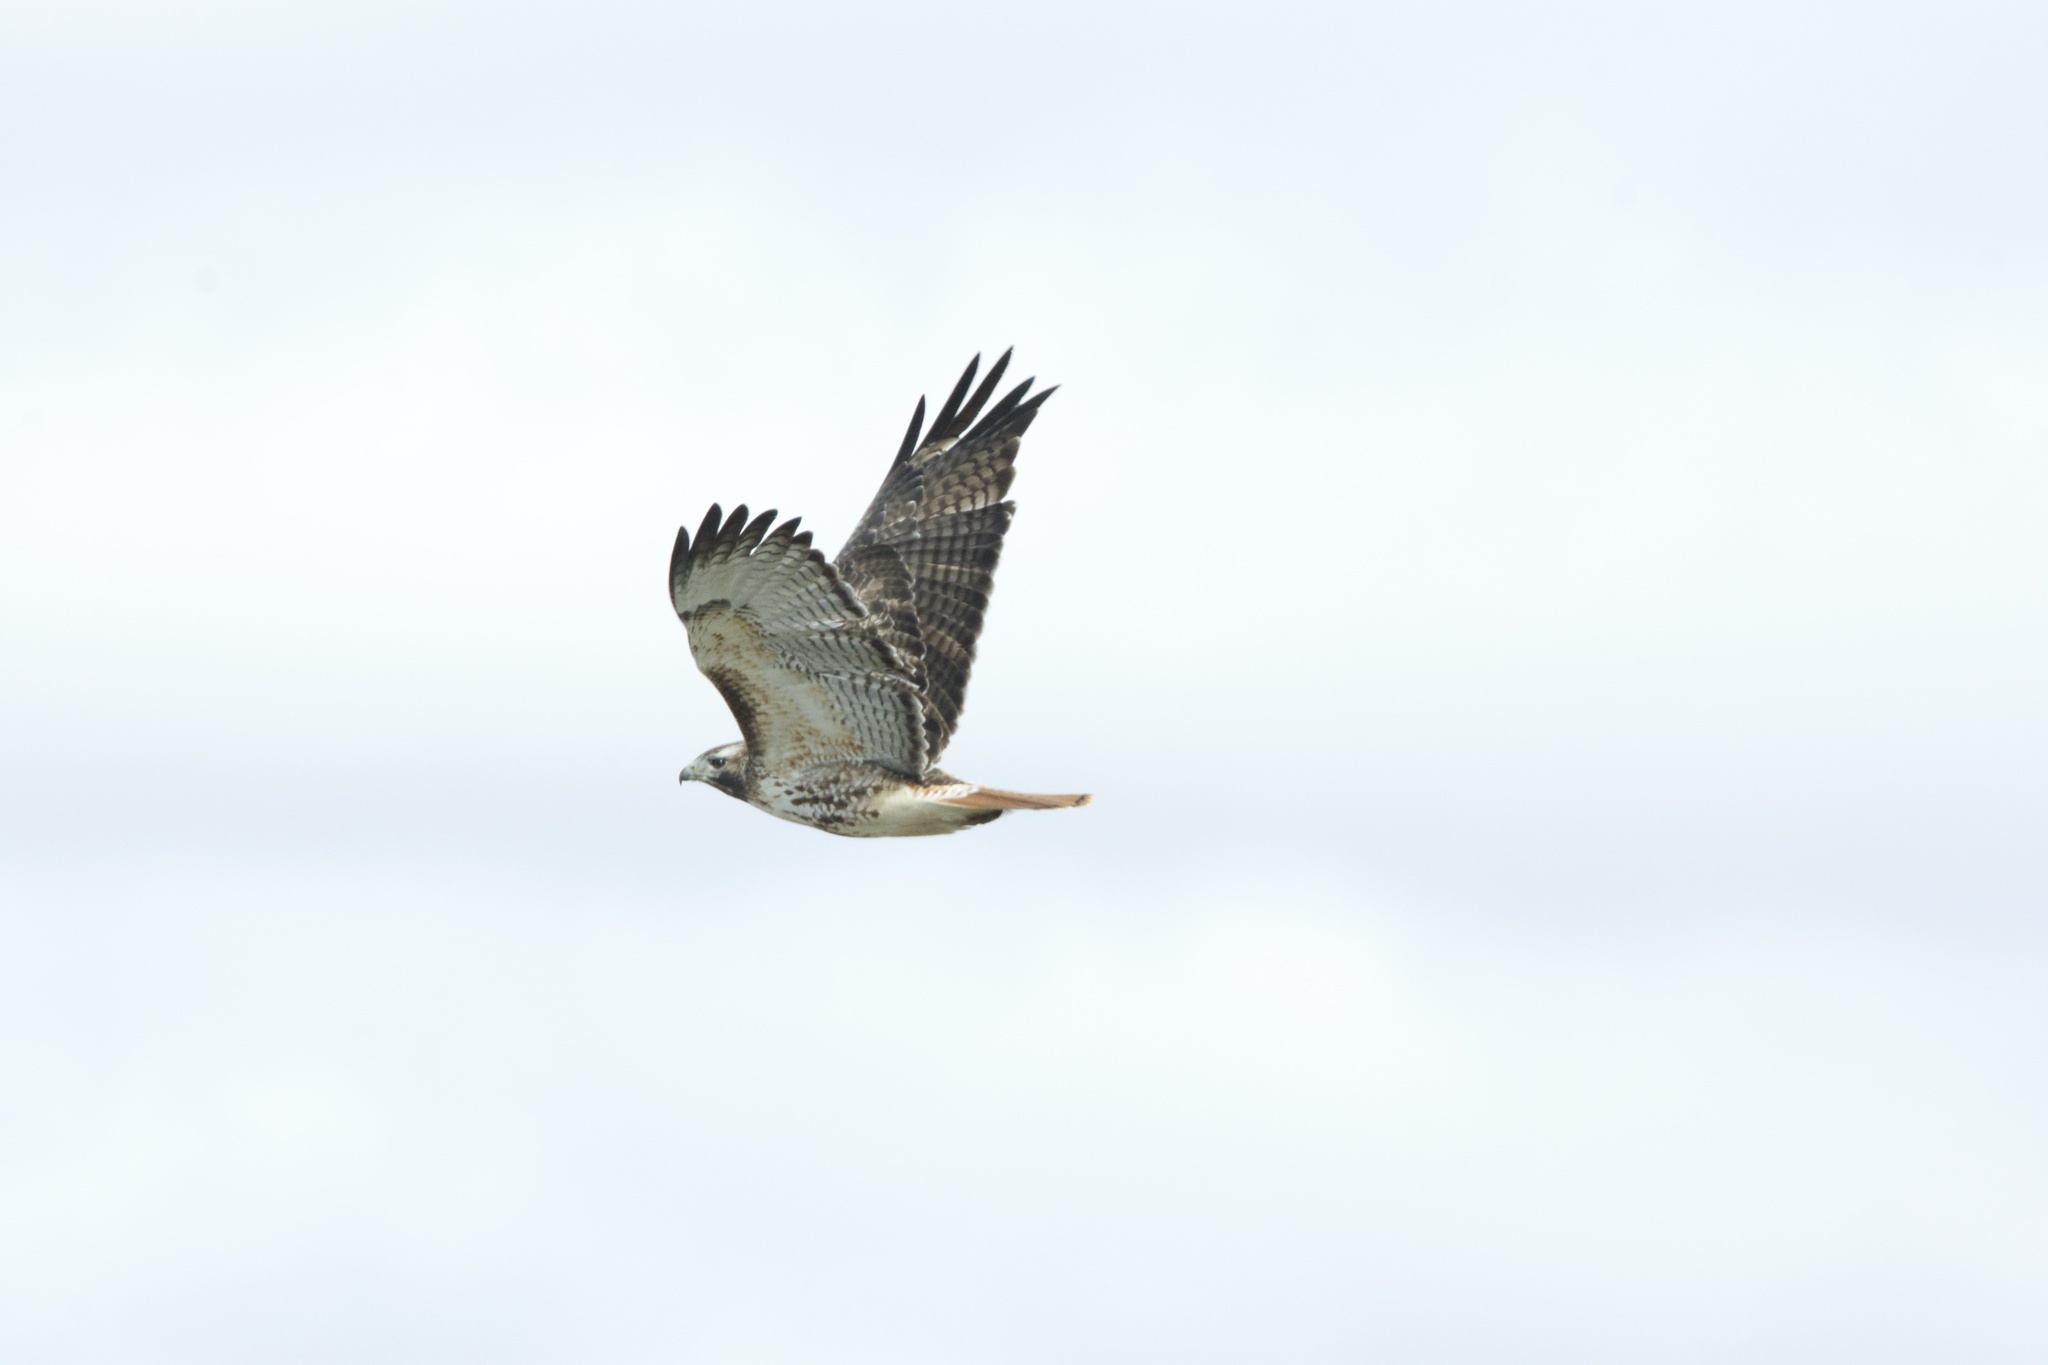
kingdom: Animalia
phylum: Chordata
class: Aves
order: Accipitriformes
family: Accipitridae
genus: Buteo
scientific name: Buteo jamaicensis
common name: Red-tailed hawk
